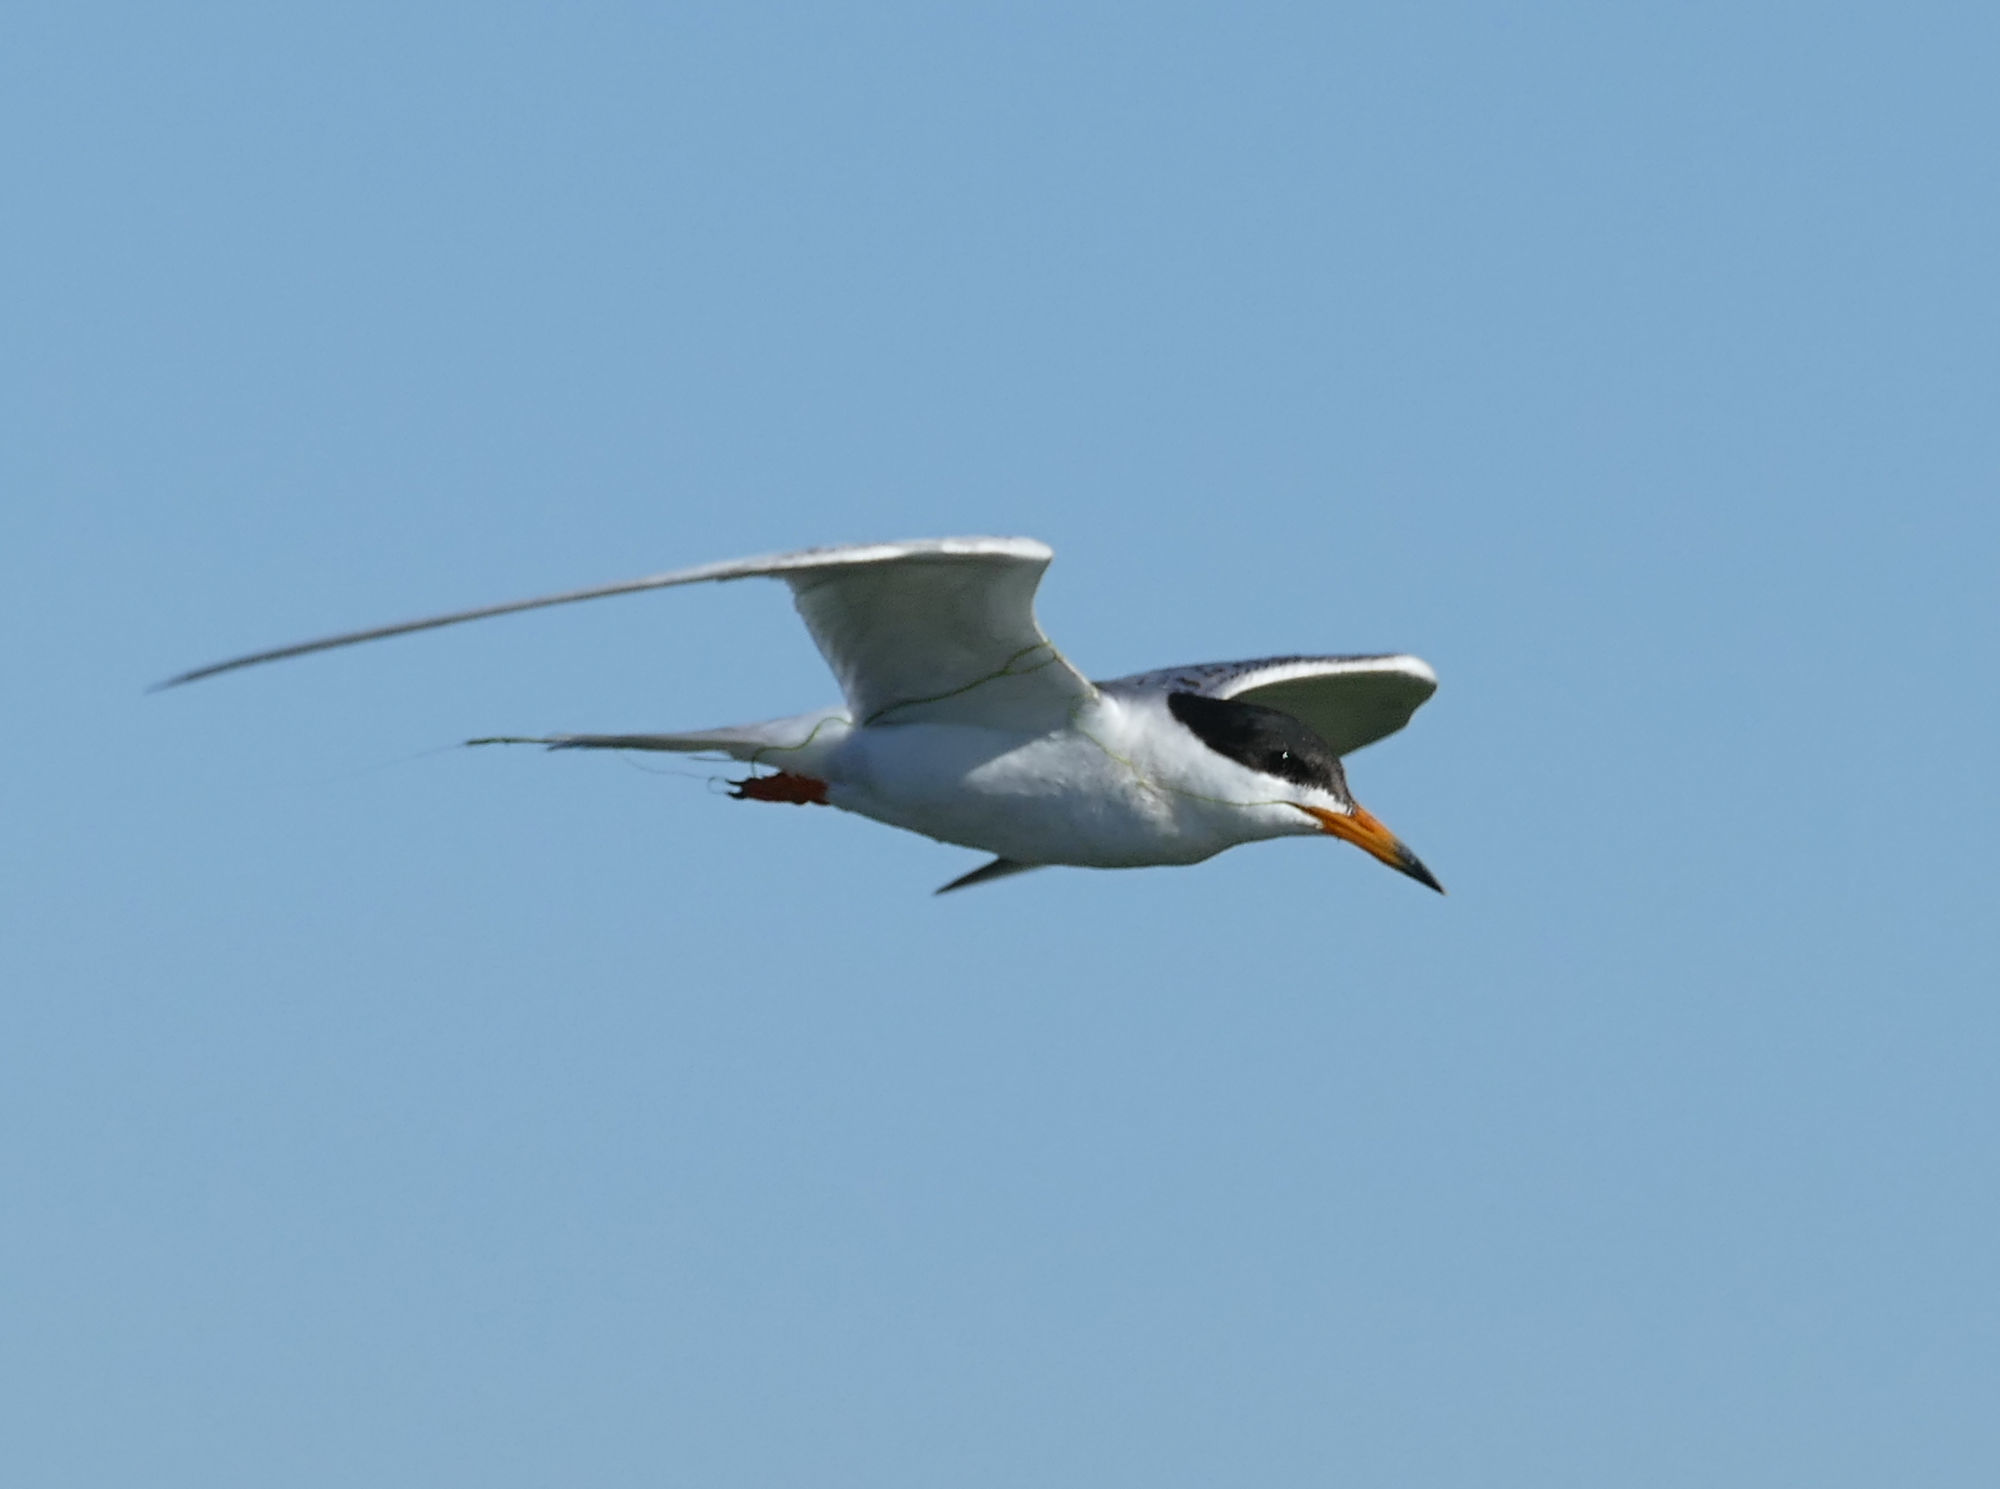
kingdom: Animalia
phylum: Chordata
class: Aves
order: Charadriiformes
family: Laridae
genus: Sterna
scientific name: Sterna forsteri
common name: Forster's tern
